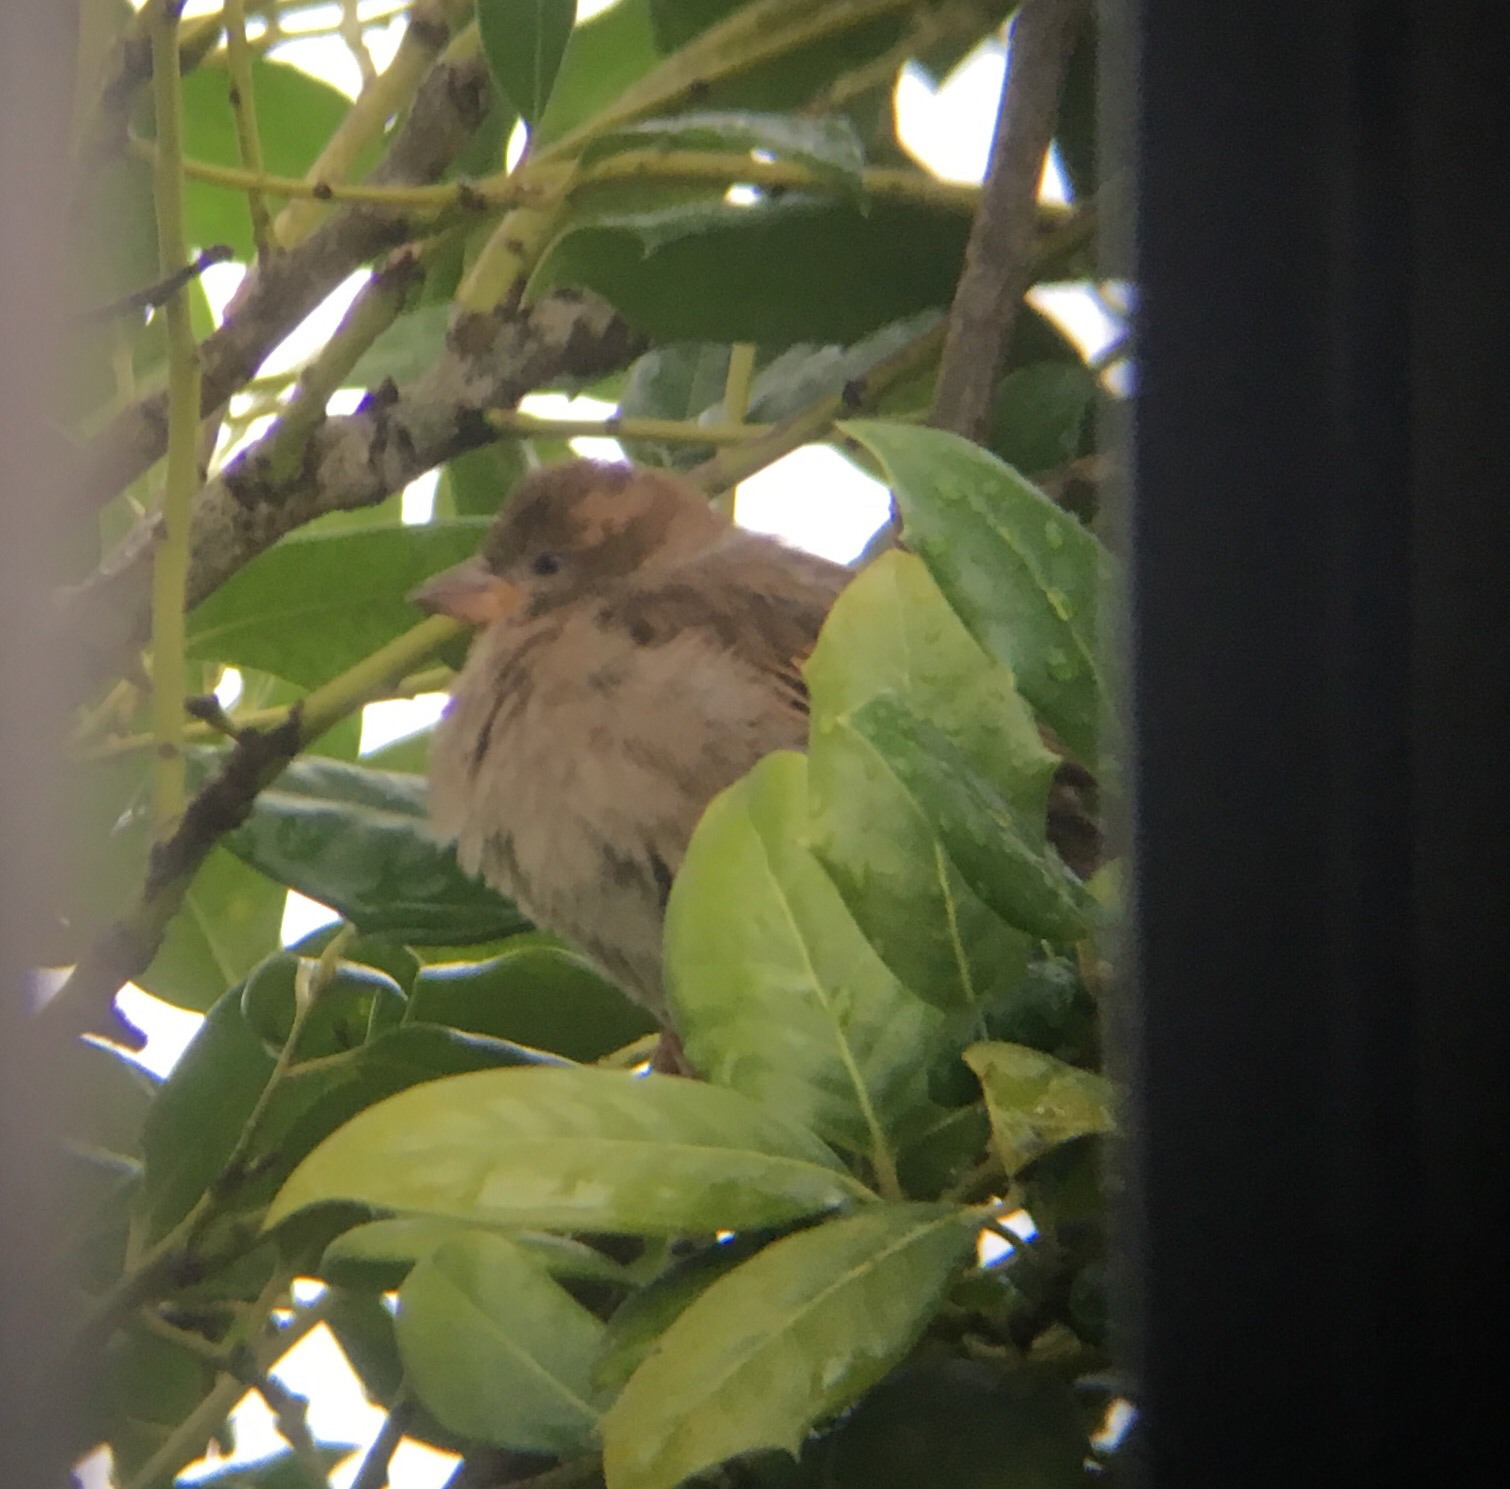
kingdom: Animalia
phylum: Chordata
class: Aves
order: Passeriformes
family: Passeridae
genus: Passer
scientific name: Passer domesticus
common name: House sparrow
